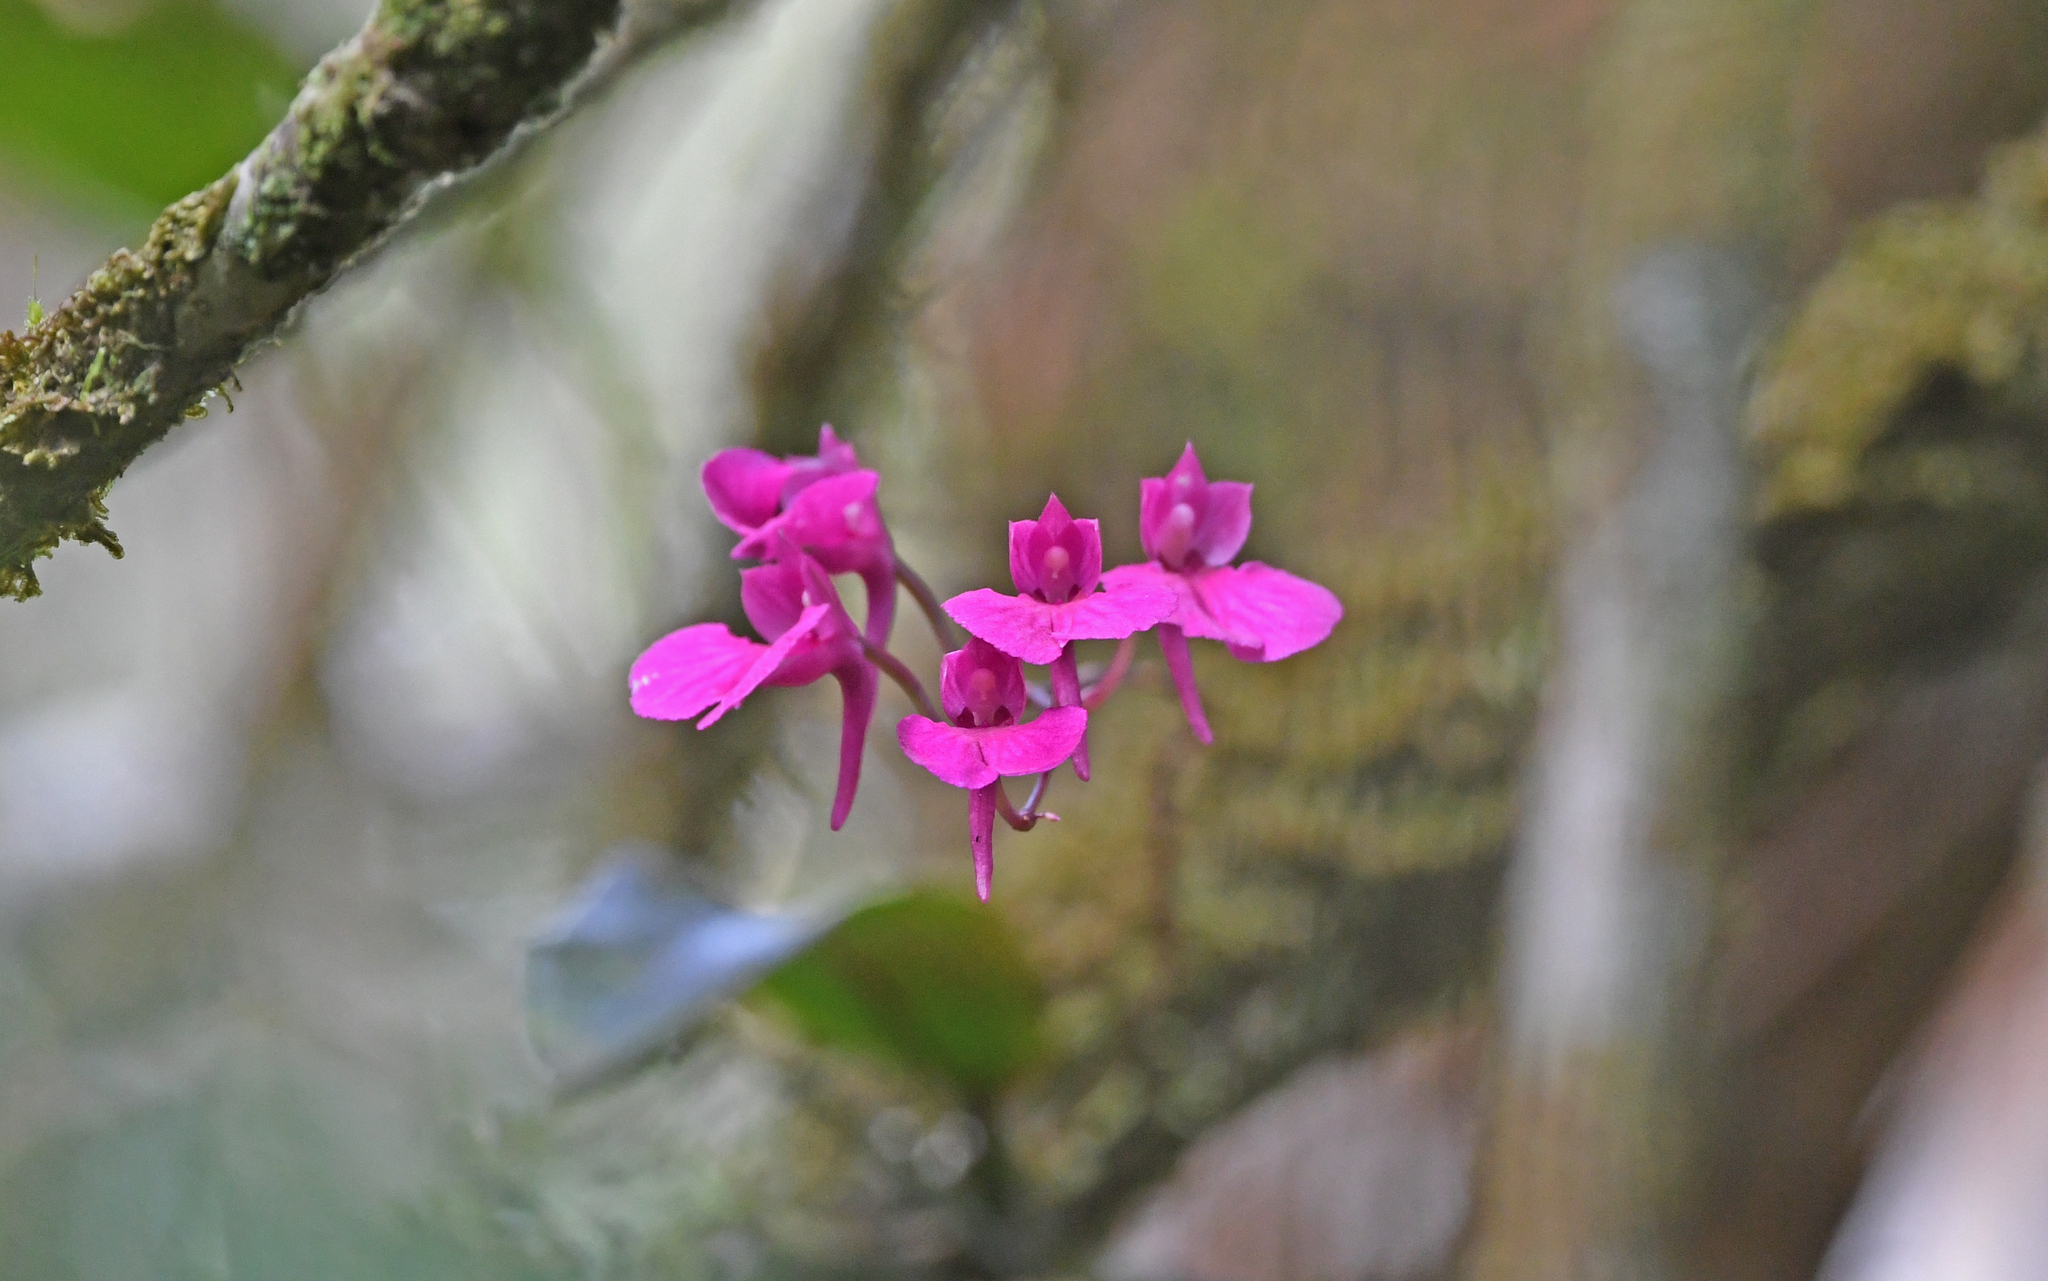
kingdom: Plantae
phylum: Tracheophyta
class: Liliopsida
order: Asparagales
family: Orchidaceae
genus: Comparettia
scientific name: Comparettia falcata
